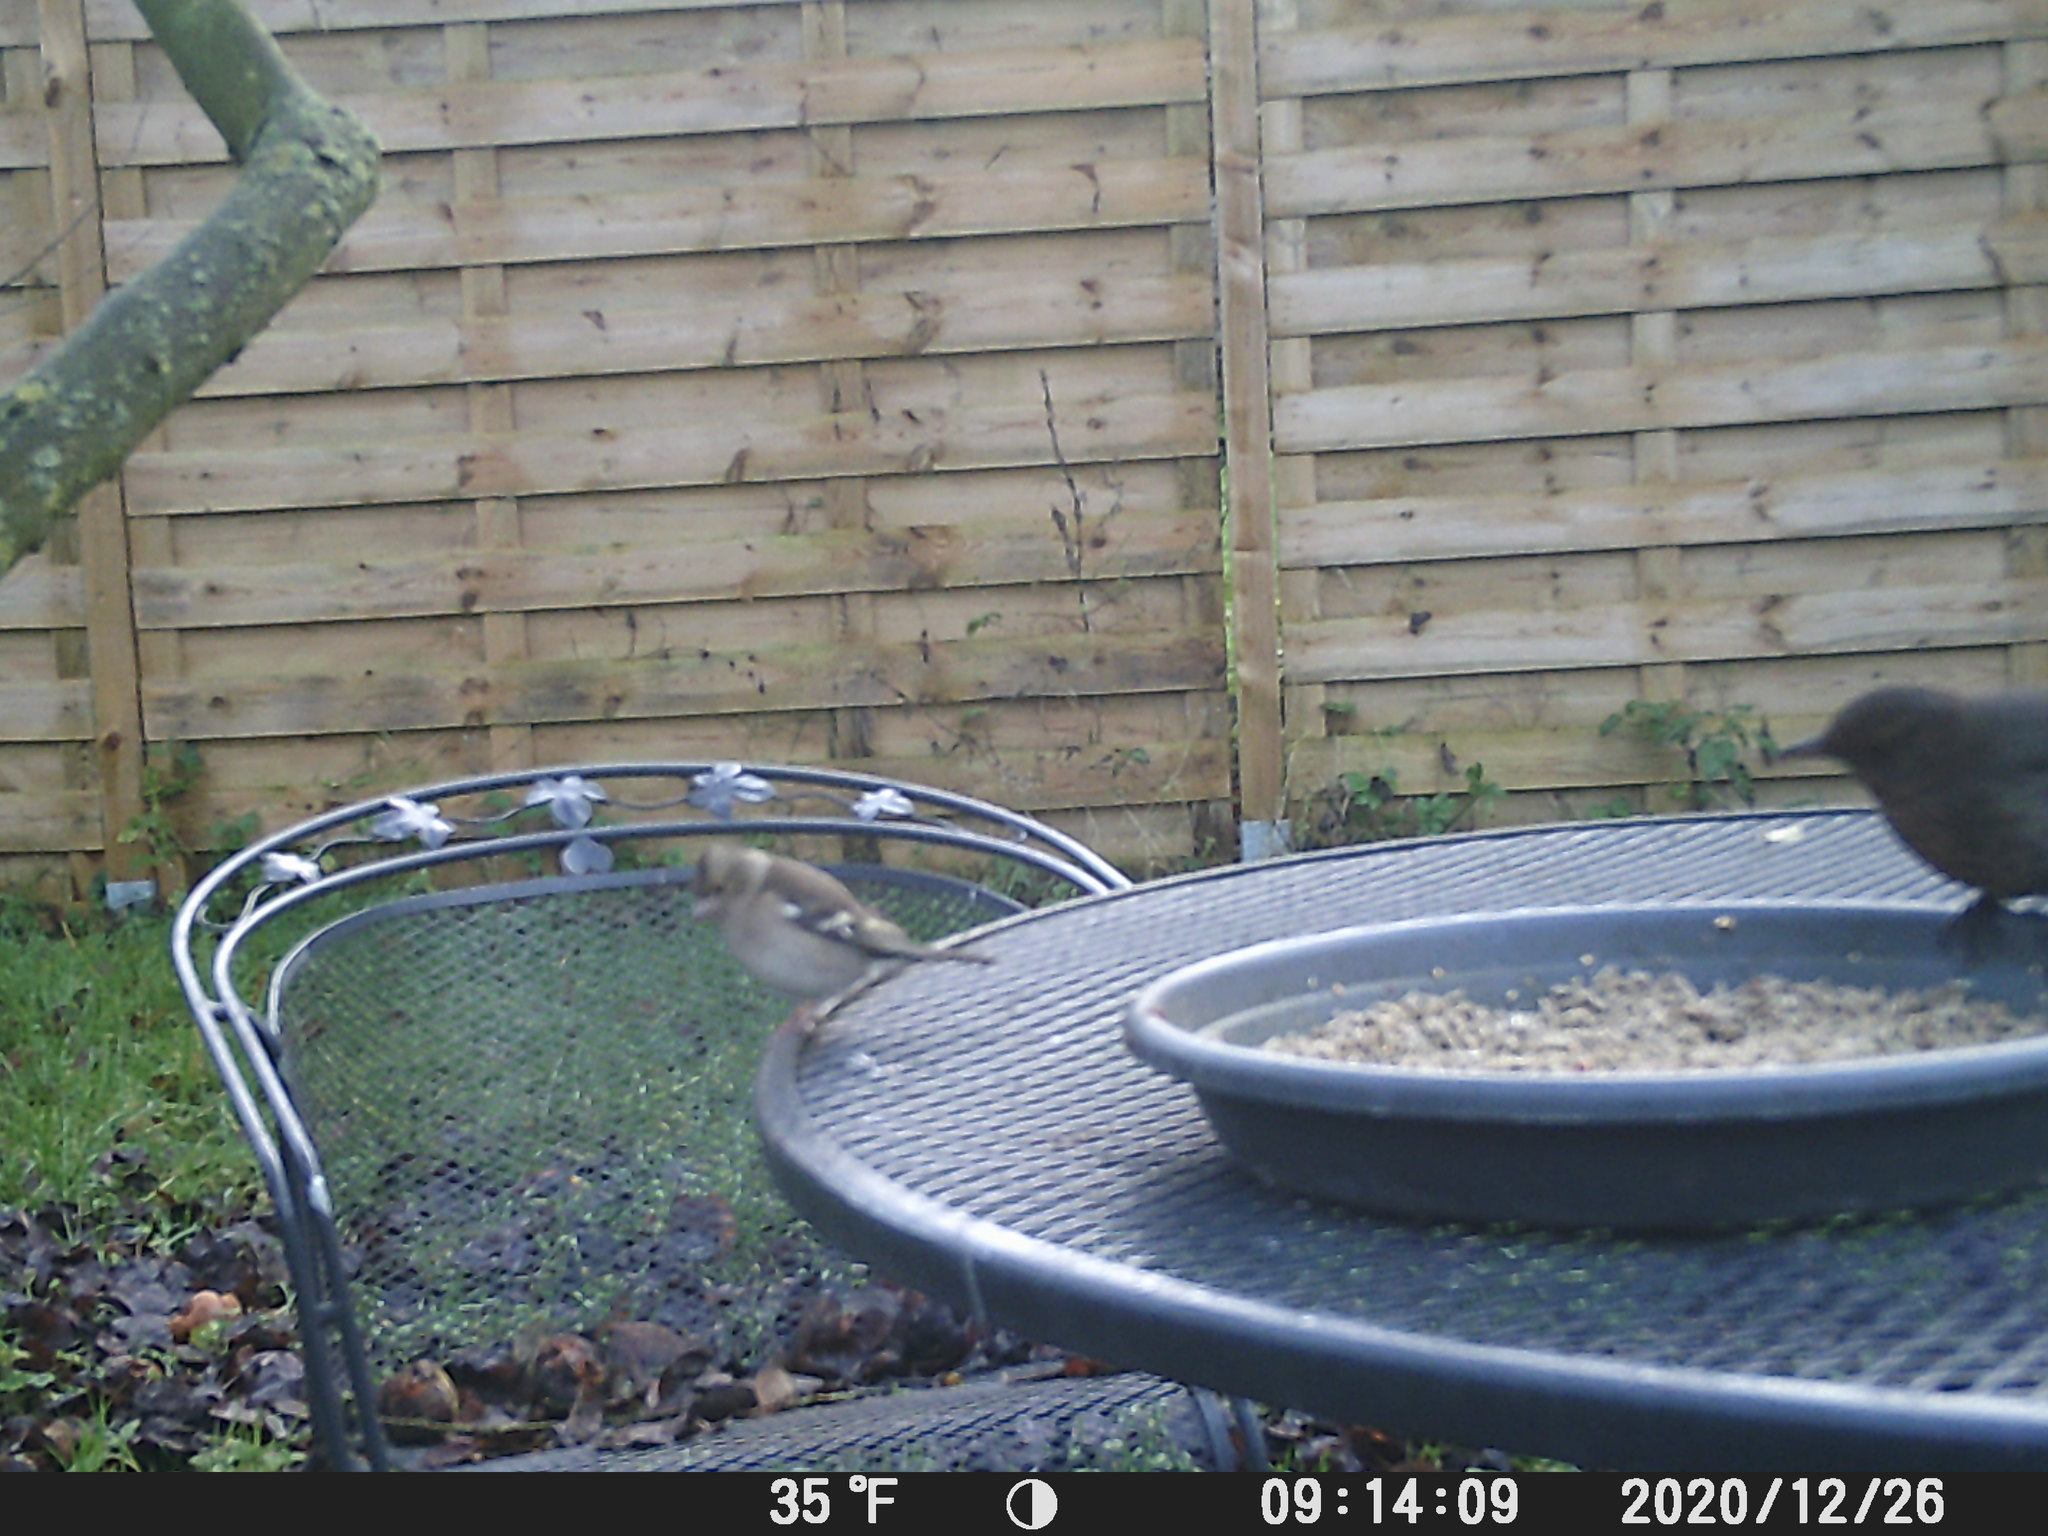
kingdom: Animalia
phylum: Chordata
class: Aves
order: Passeriformes
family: Fringillidae
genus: Fringilla
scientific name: Fringilla coelebs
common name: Common chaffinch
